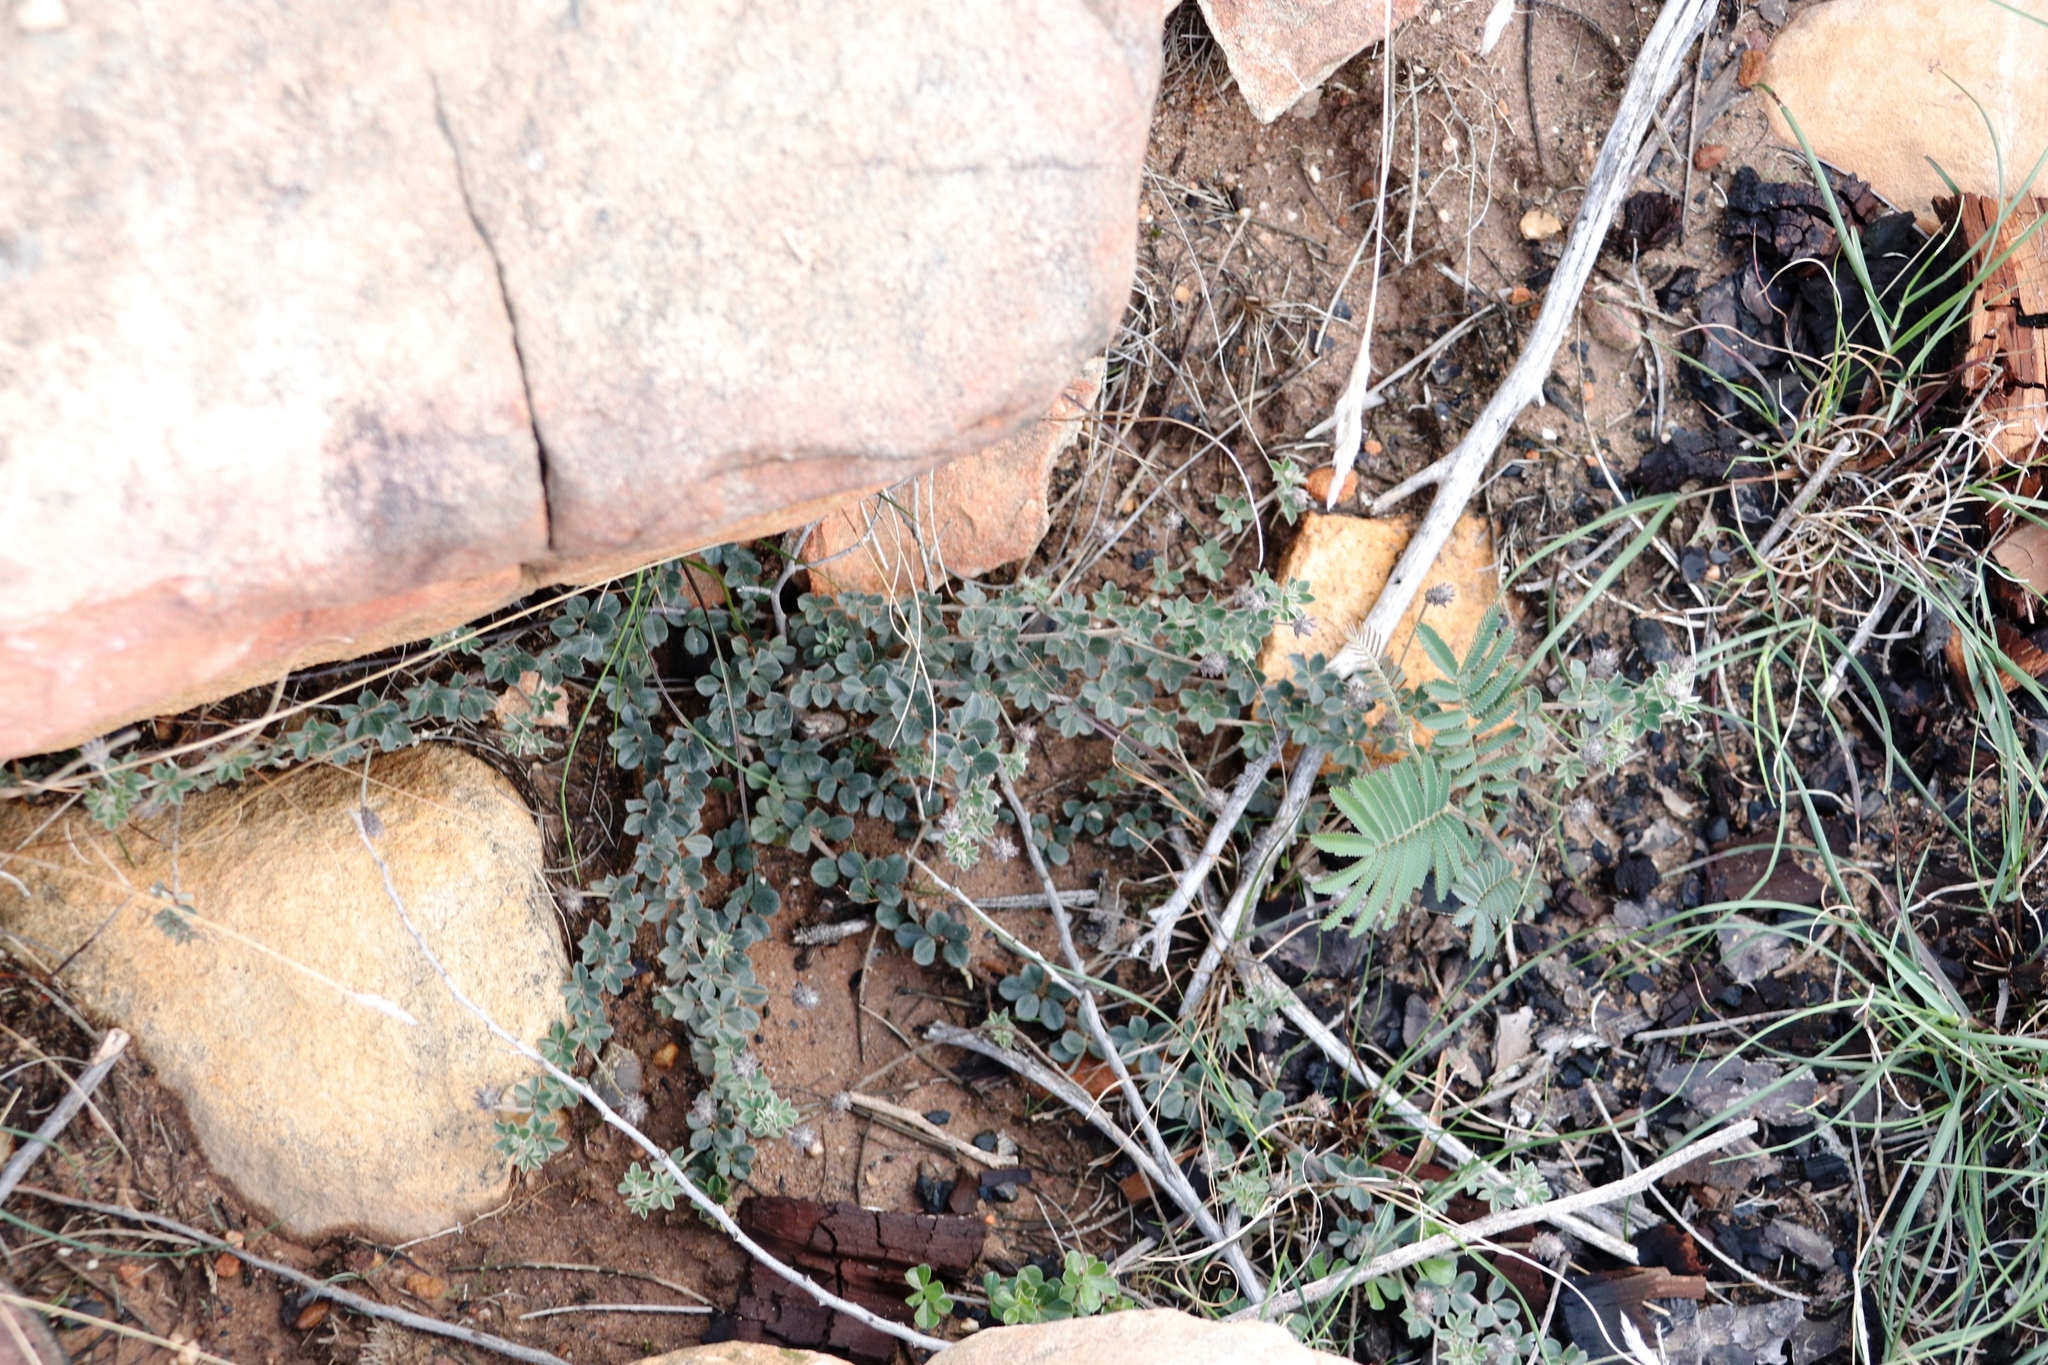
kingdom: Plantae
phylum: Tracheophyta
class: Magnoliopsida
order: Fabales
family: Fabaceae
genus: Indigofera
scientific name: Indigofera mauritanica
